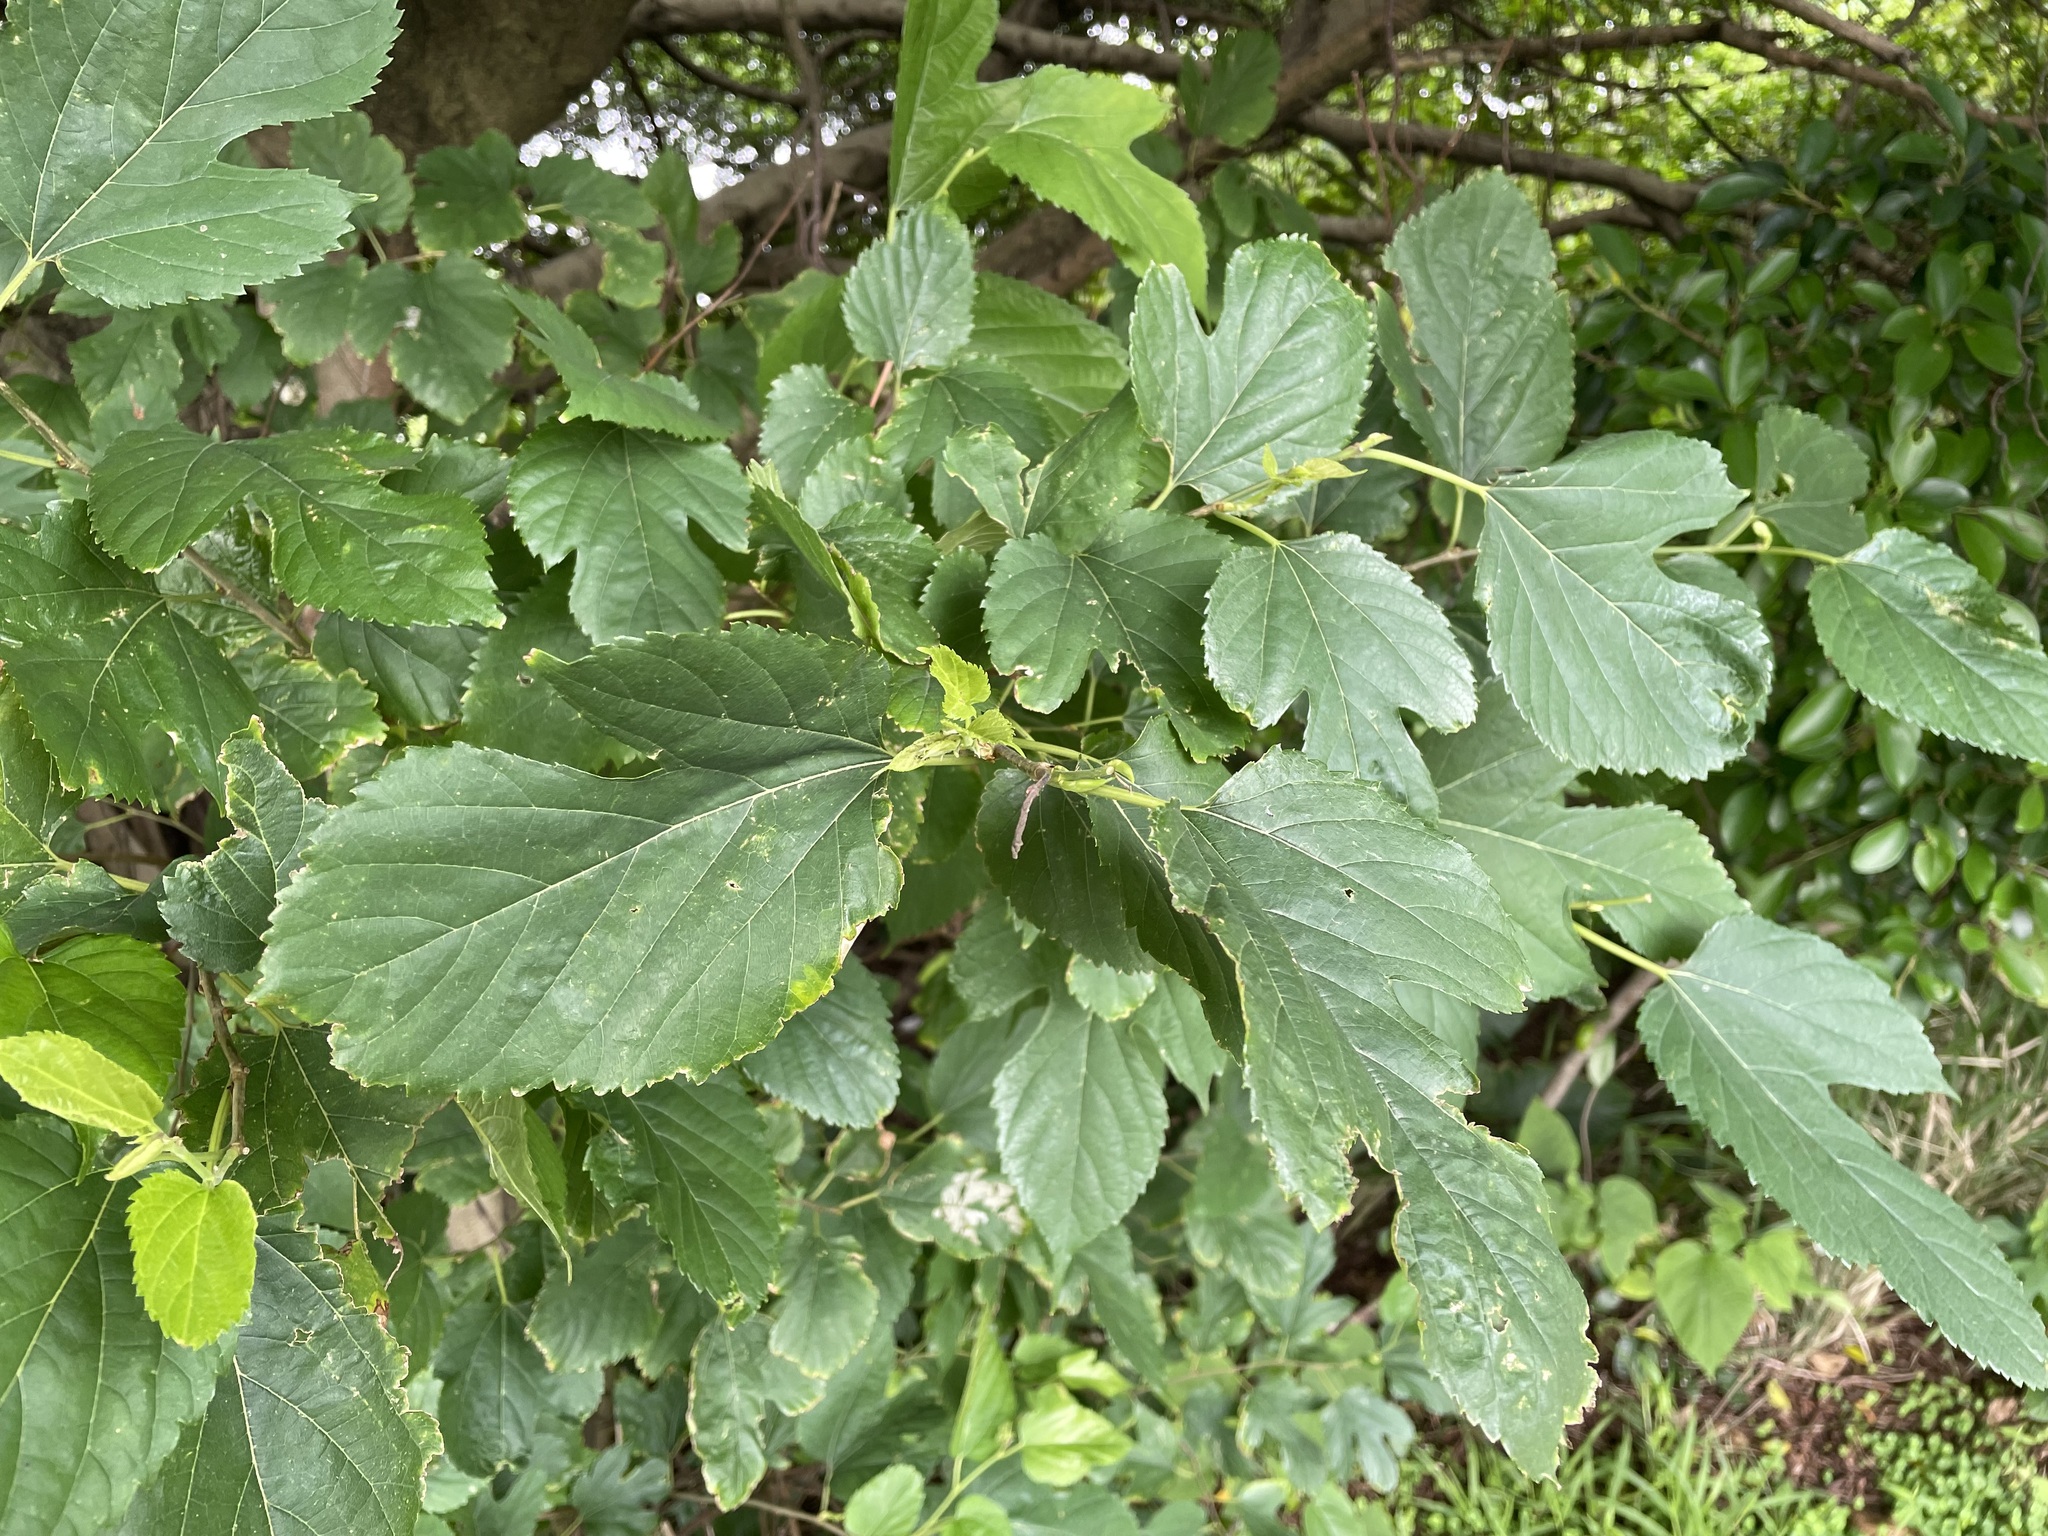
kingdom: Plantae
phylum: Tracheophyta
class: Magnoliopsida
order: Rosales
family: Moraceae
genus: Morus
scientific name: Morus indica
